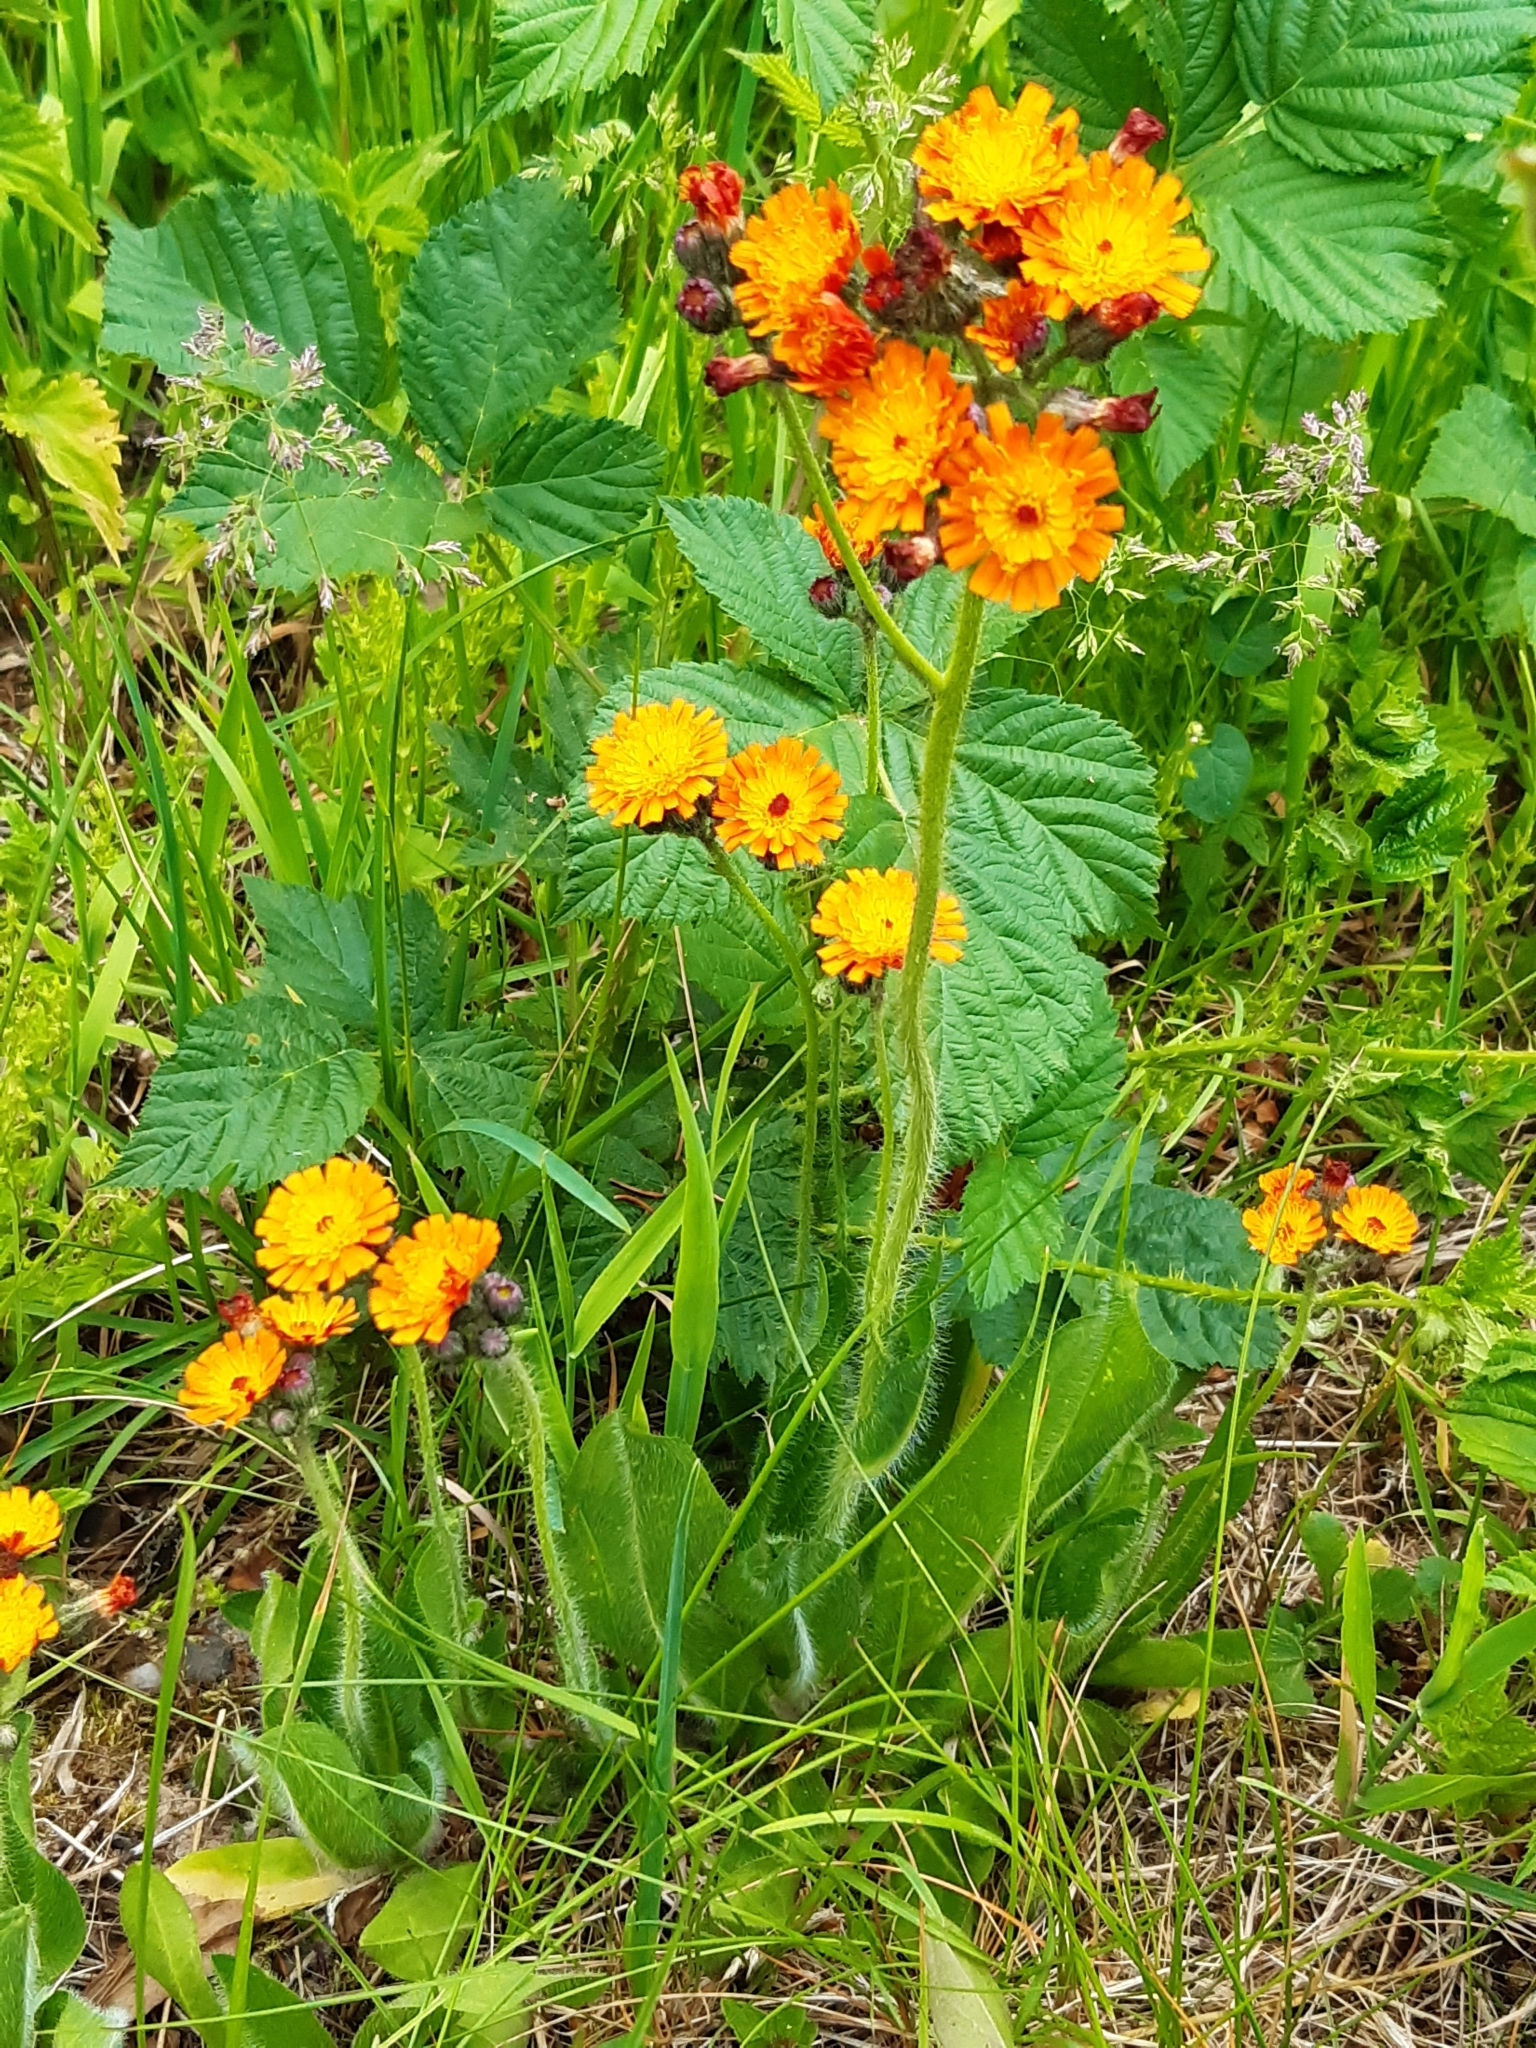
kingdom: Plantae
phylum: Tracheophyta
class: Magnoliopsida
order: Asterales
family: Asteraceae
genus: Pilosella
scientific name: Pilosella aurantiaca
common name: Fox-and-cubs
